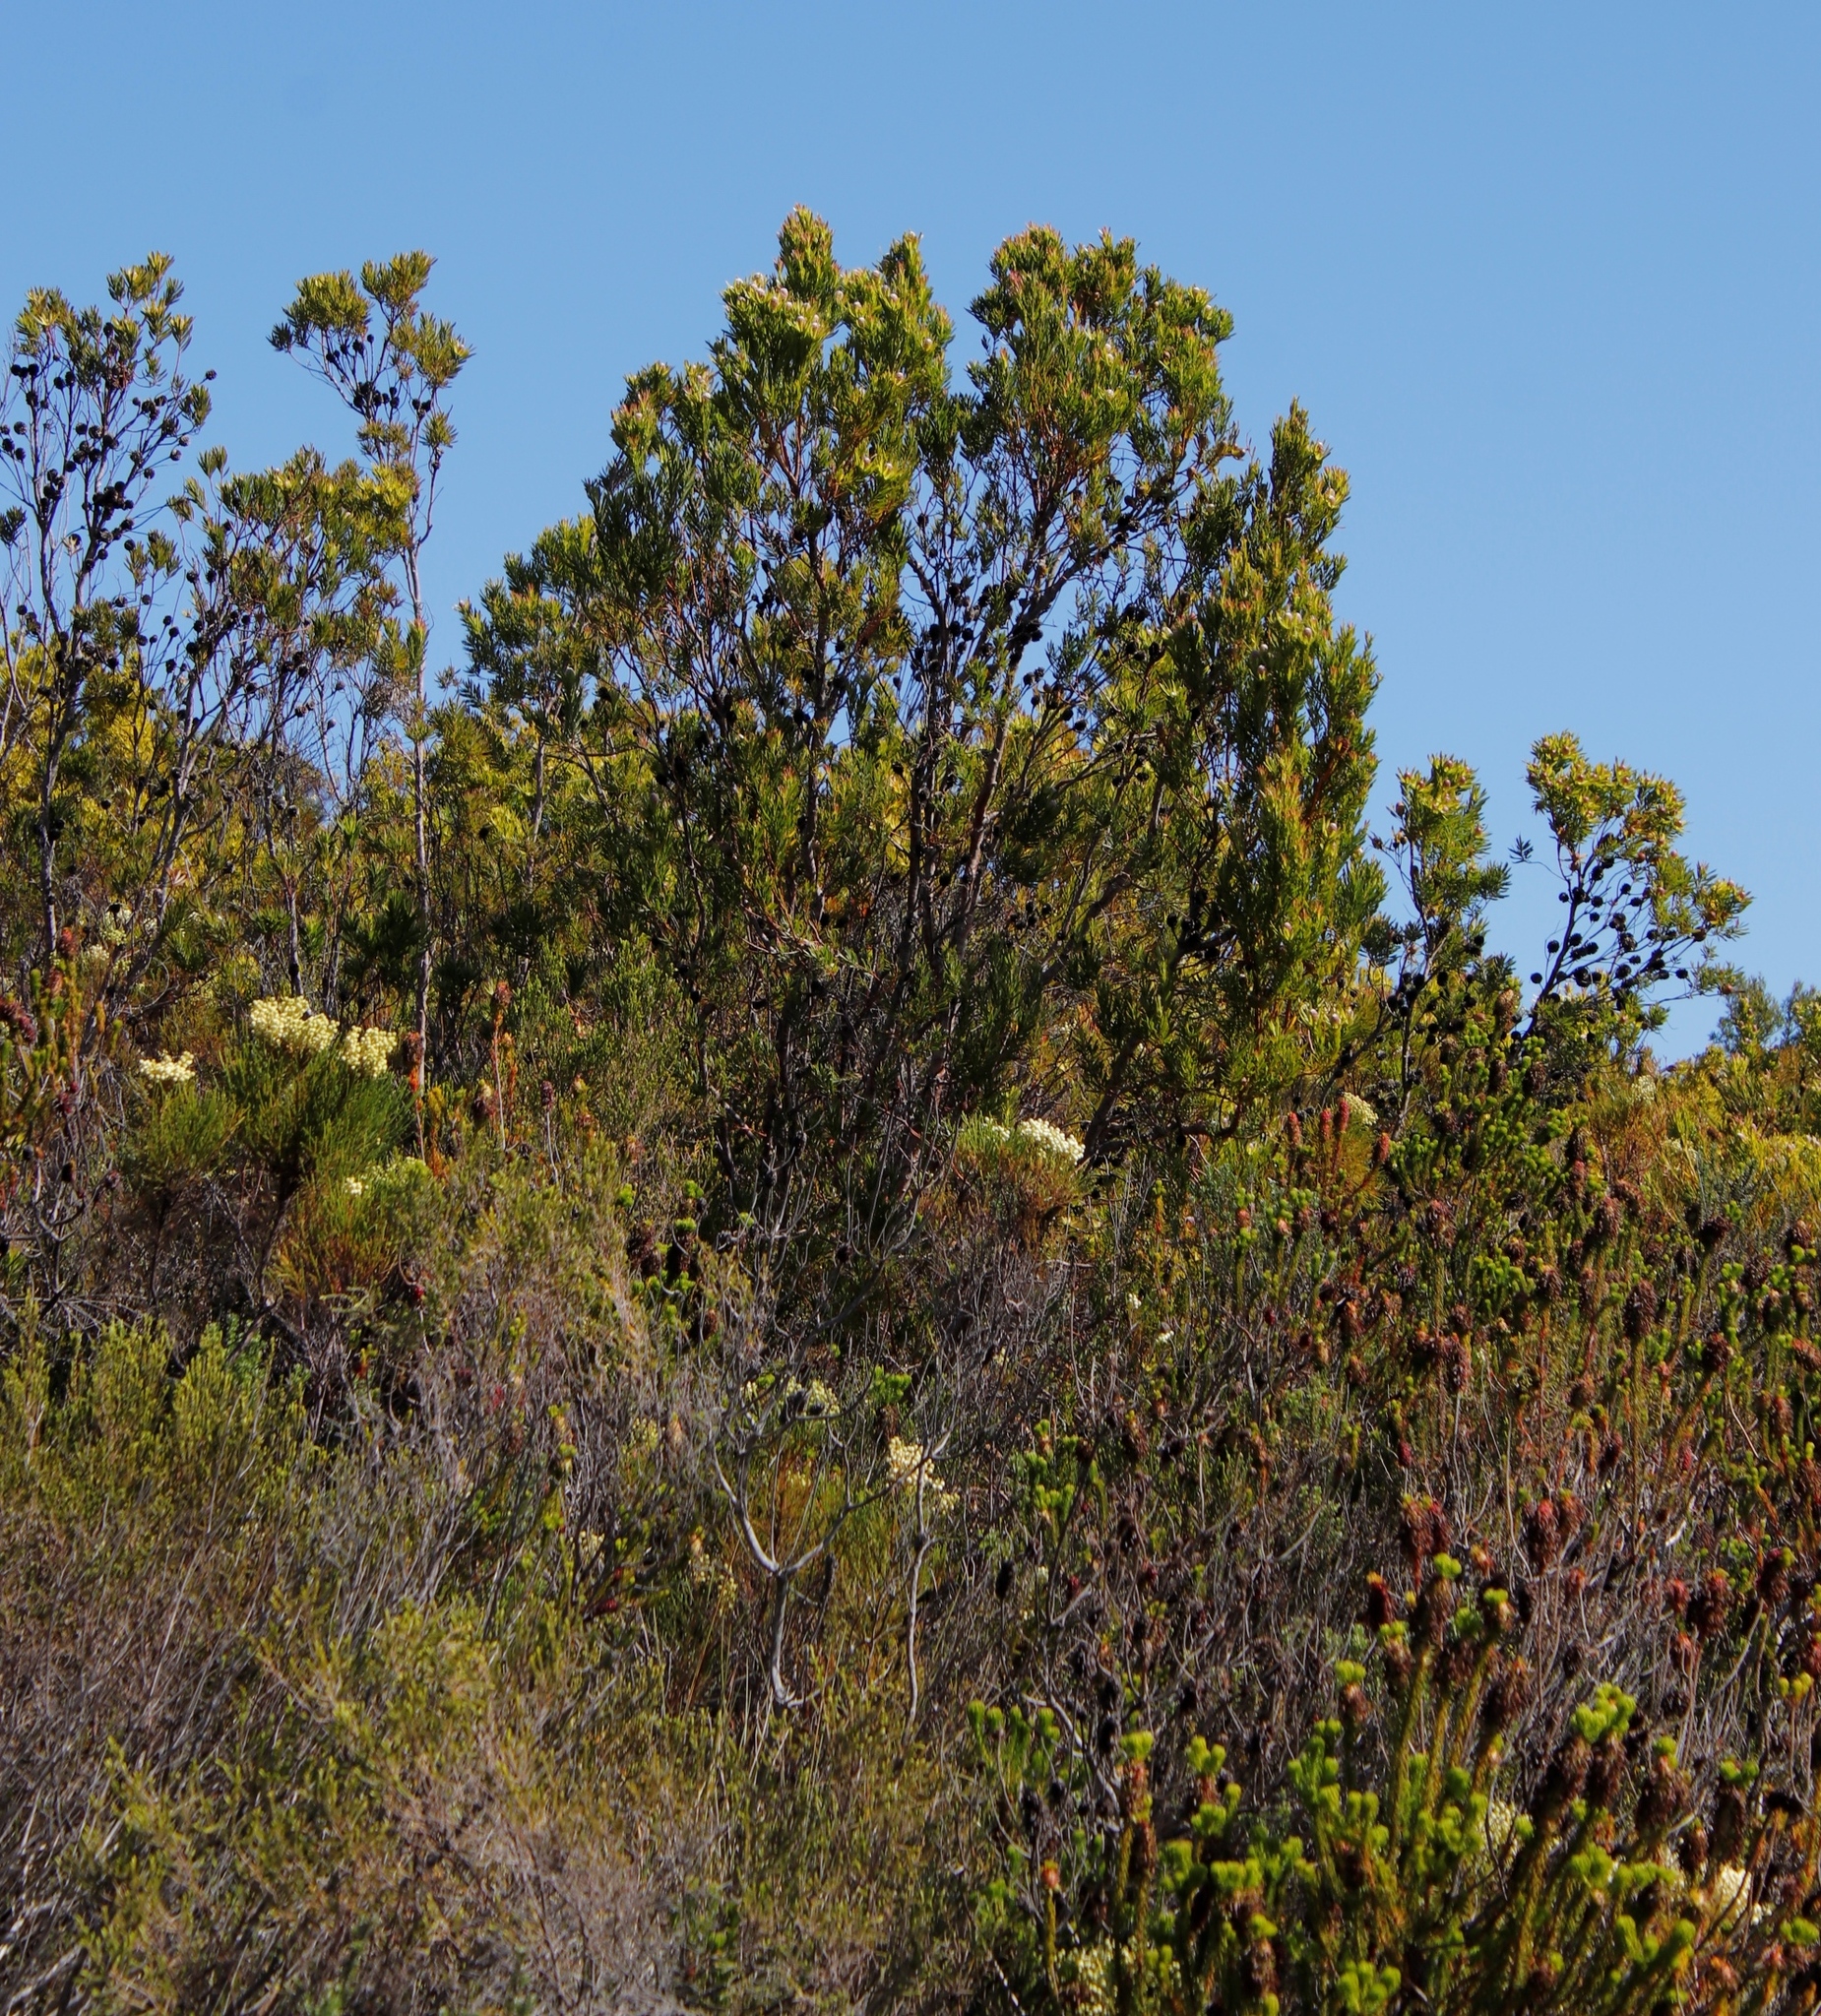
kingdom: Plantae
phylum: Tracheophyta
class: Magnoliopsida
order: Proteales
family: Proteaceae
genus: Leucadendron
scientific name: Leucadendron xanthoconus
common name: Sickle-leaf conebush
